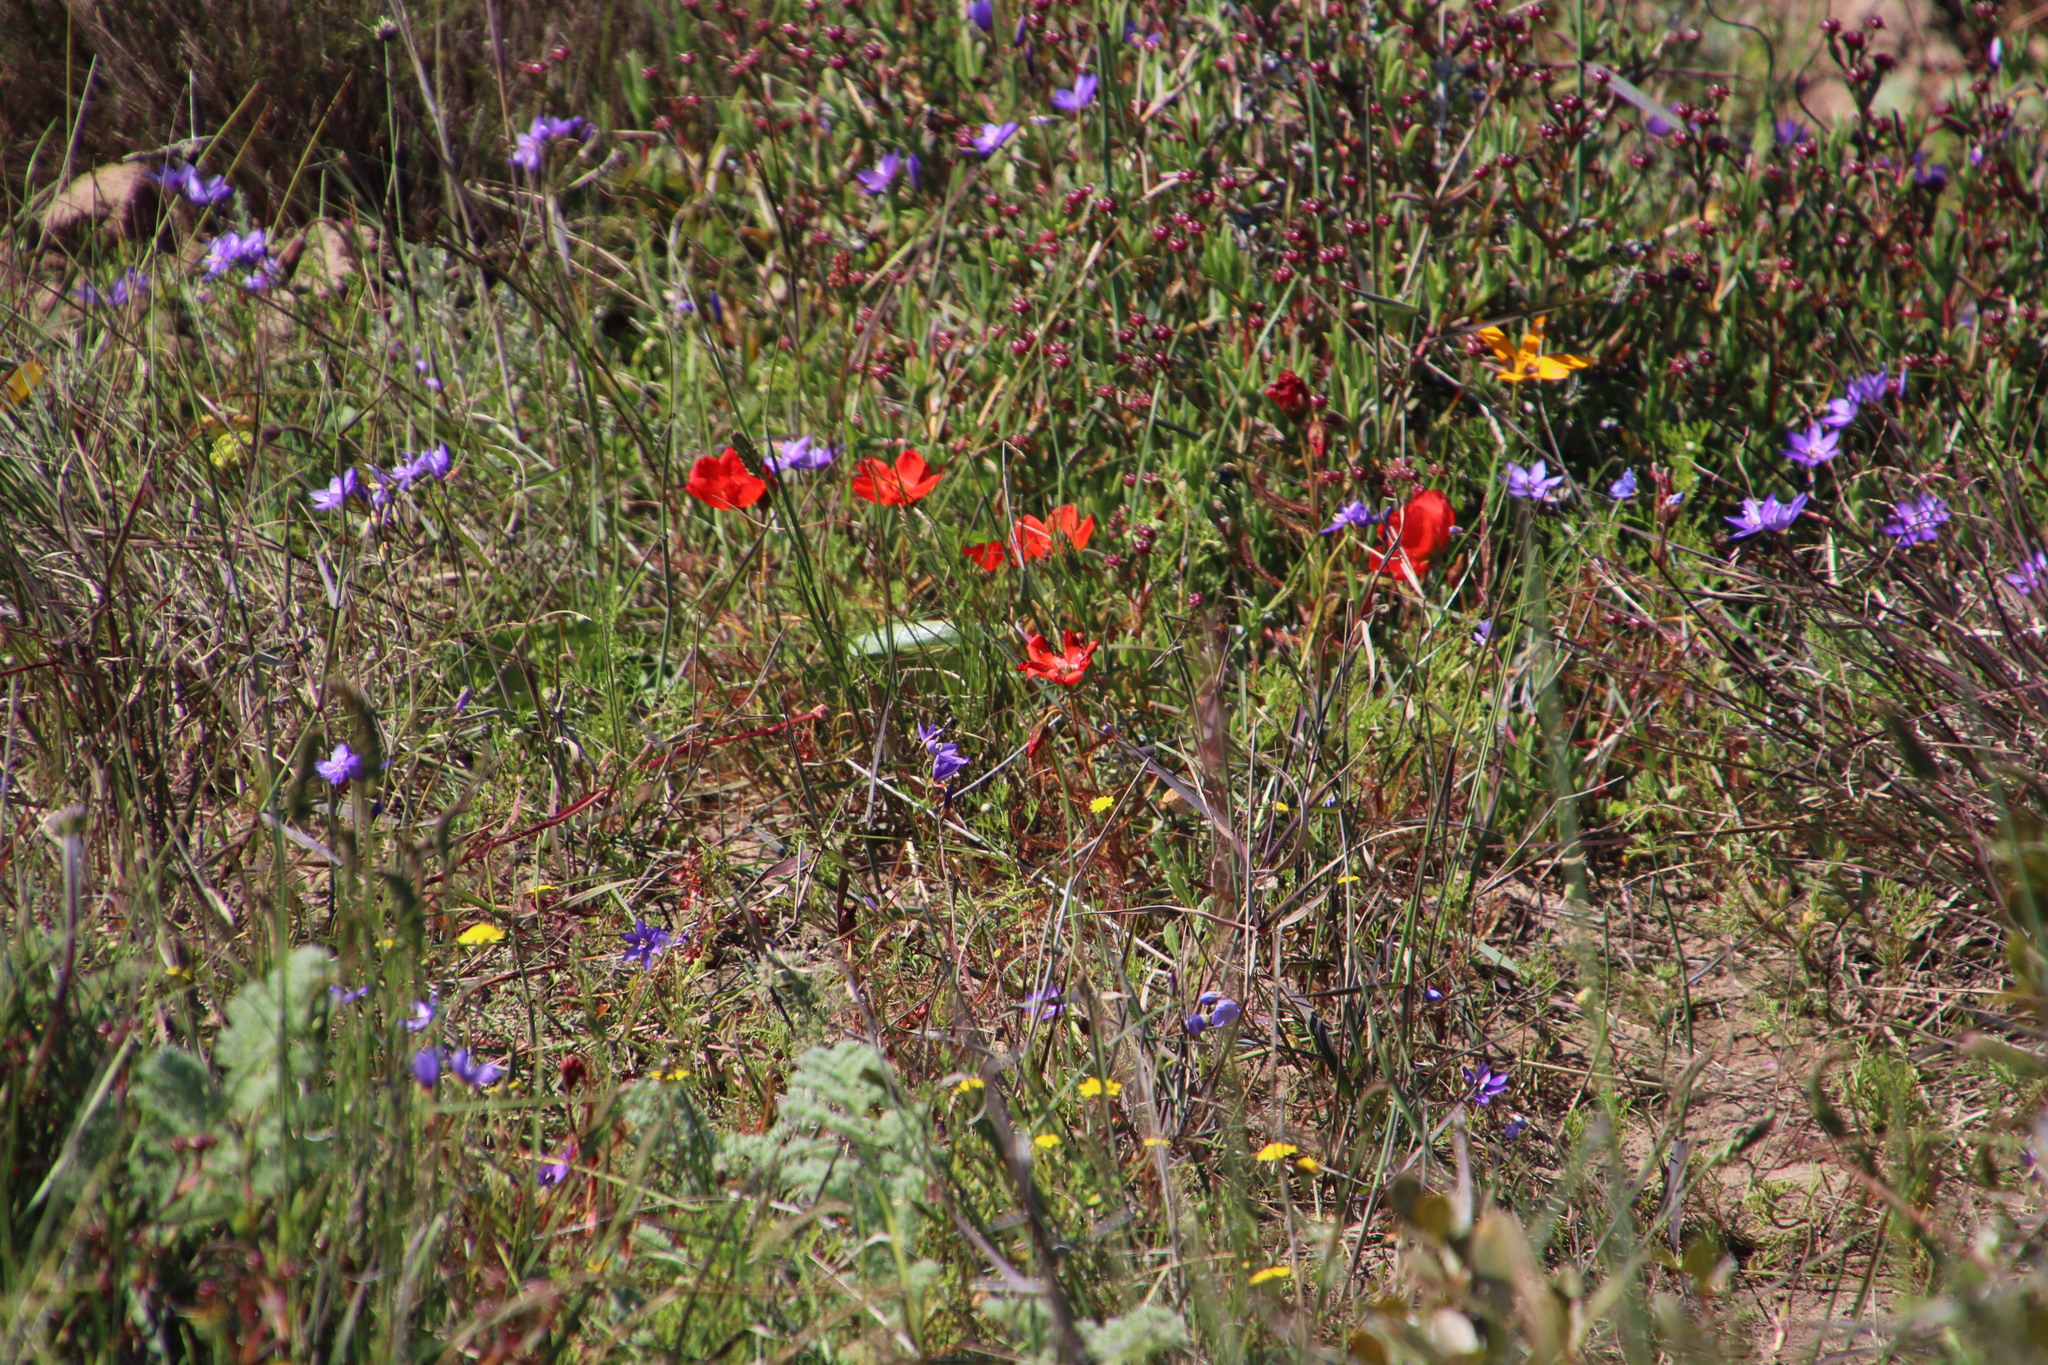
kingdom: Plantae
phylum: Tracheophyta
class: Magnoliopsida
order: Caryophyllales
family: Droseraceae
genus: Drosera
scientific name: Drosera cistiflora
